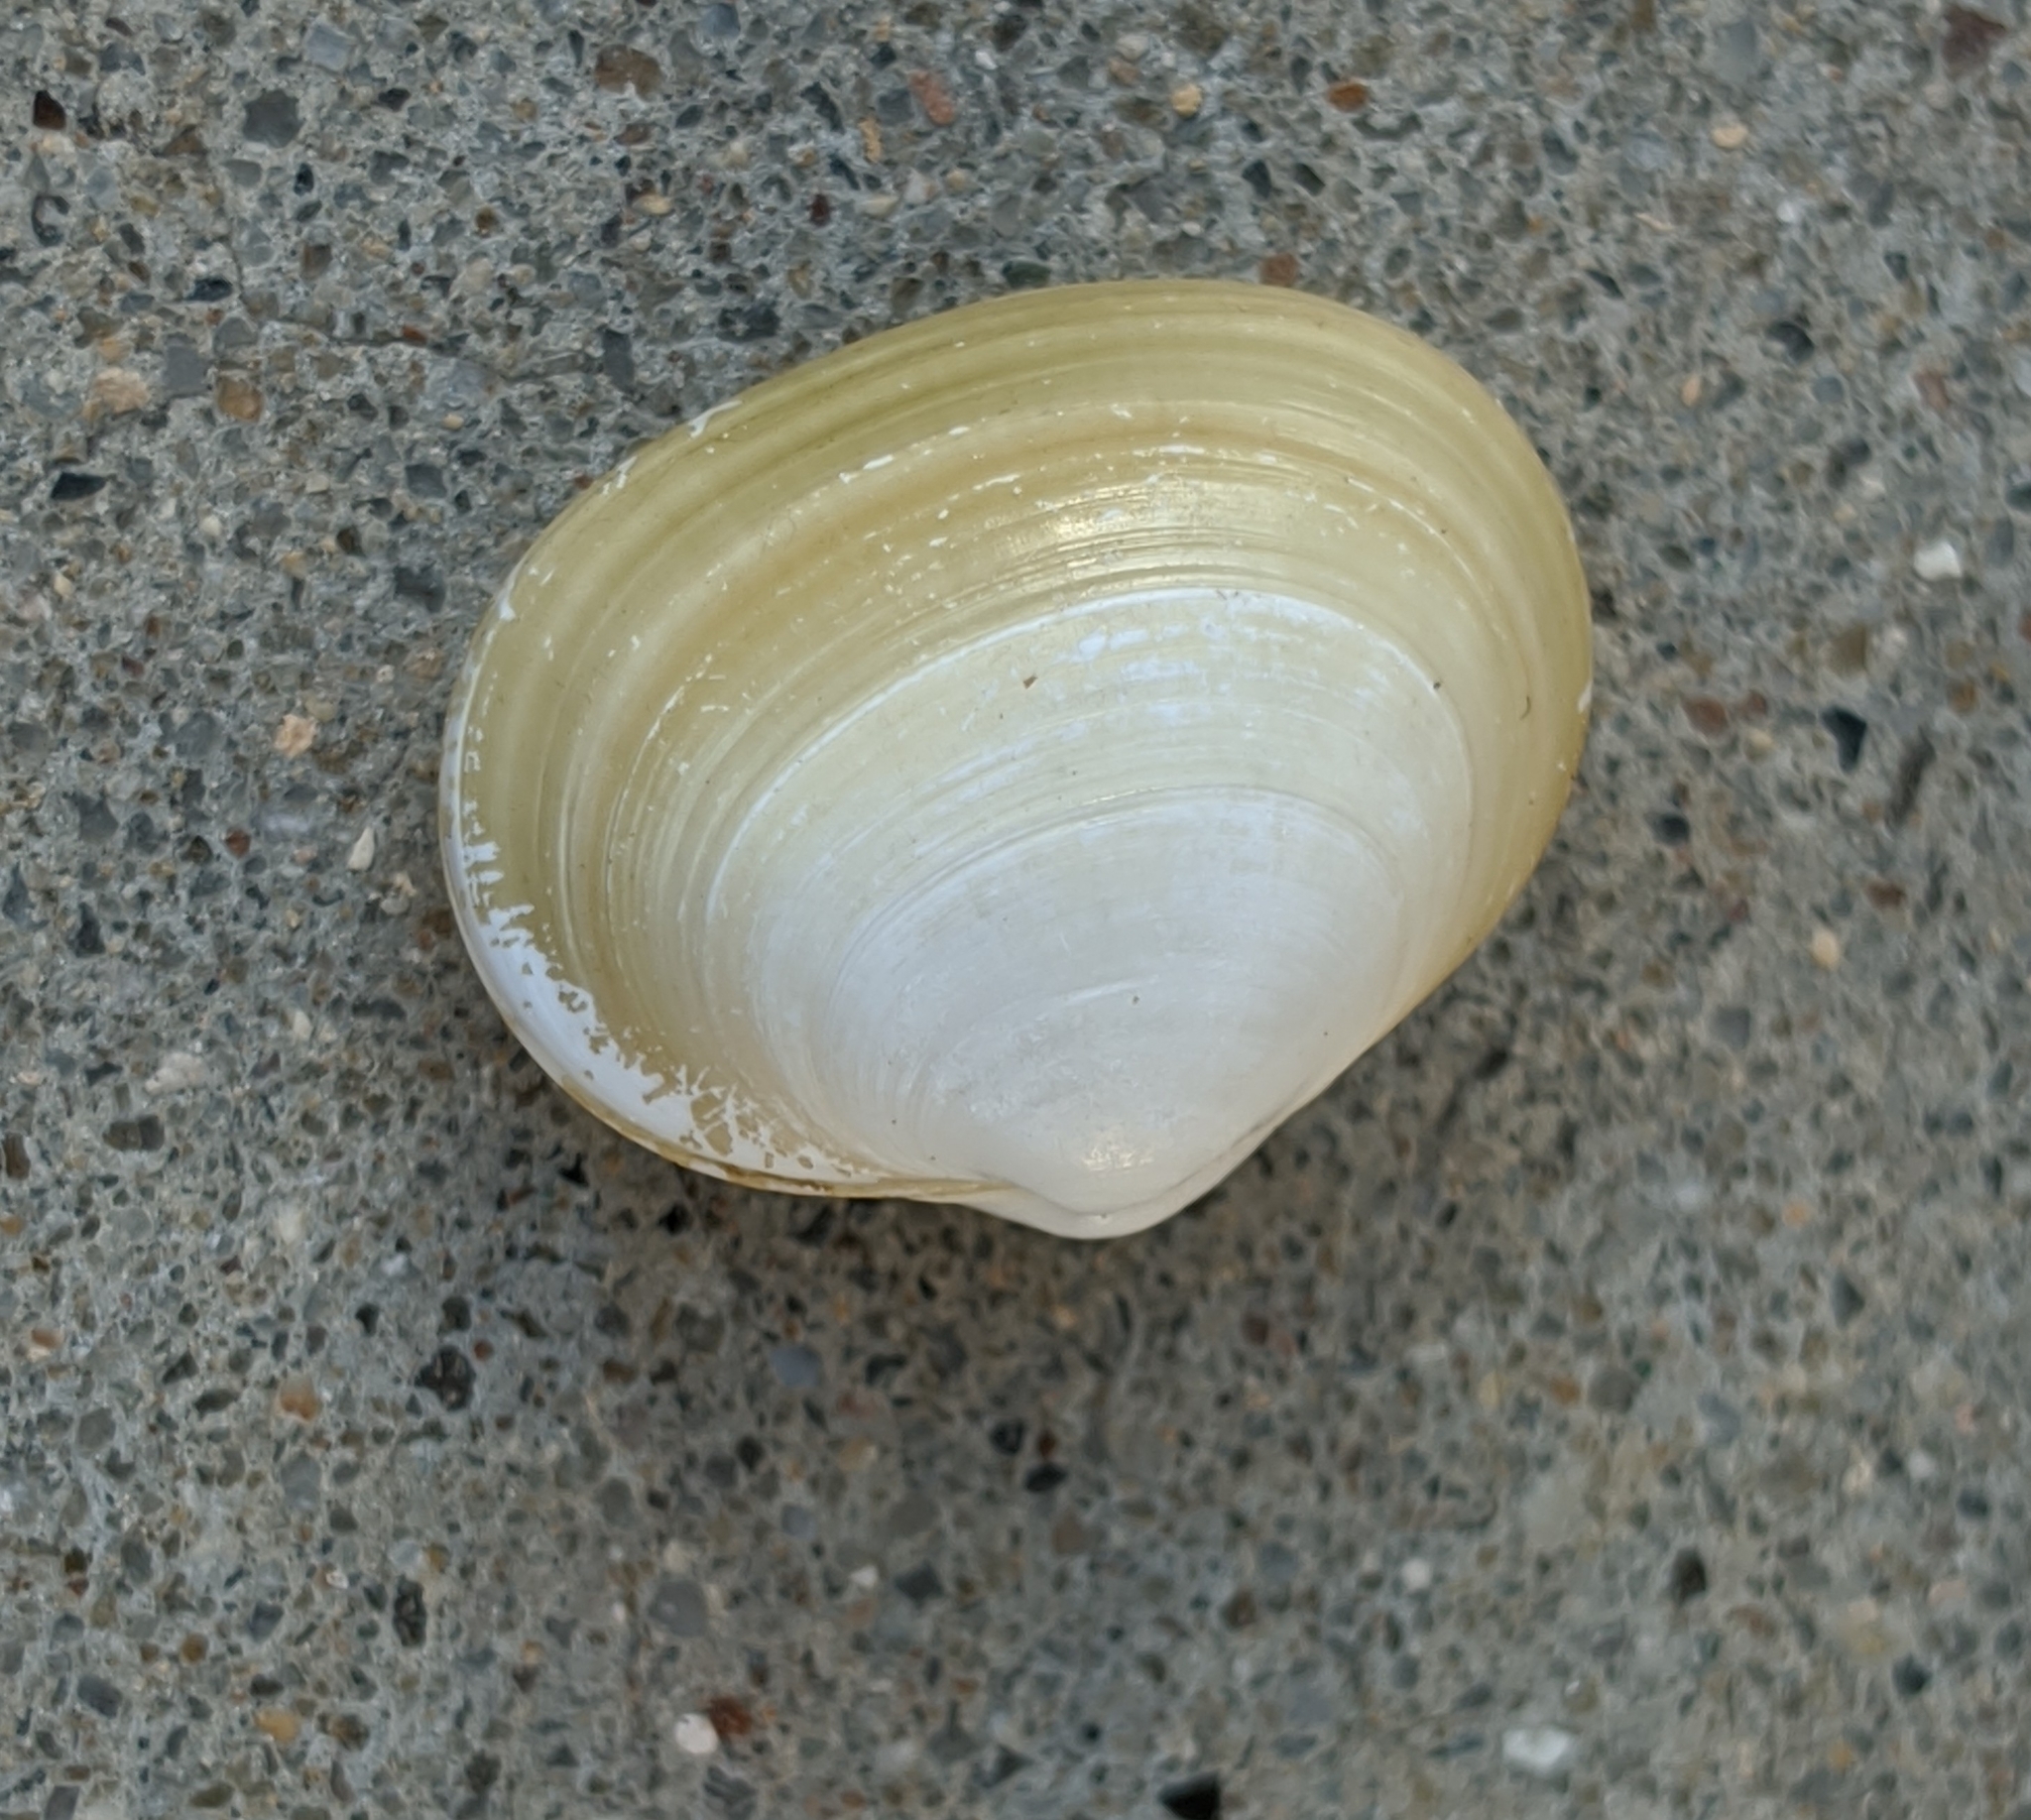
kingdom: Animalia
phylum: Mollusca
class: Bivalvia
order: Galeommatida
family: Lasaeidae
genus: Kellia
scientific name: Kellia laperousii
